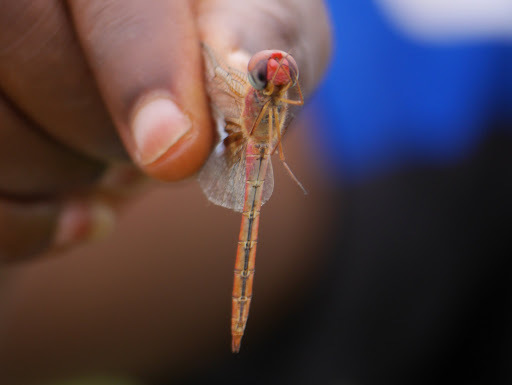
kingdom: Animalia
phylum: Arthropoda
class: Insecta
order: Odonata
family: Libellulidae
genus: Tholymis
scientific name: Tholymis tillarga
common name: Coral-tailed cloud wing
